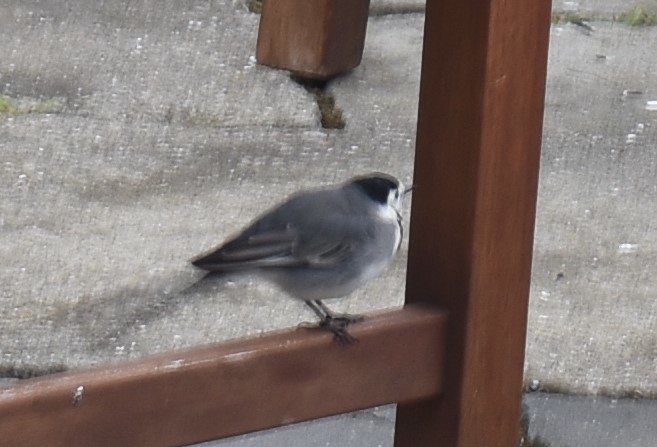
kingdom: Animalia
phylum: Chordata
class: Aves
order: Passeriformes
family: Motacillidae
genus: Motacilla
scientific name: Motacilla alba
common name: White wagtail
